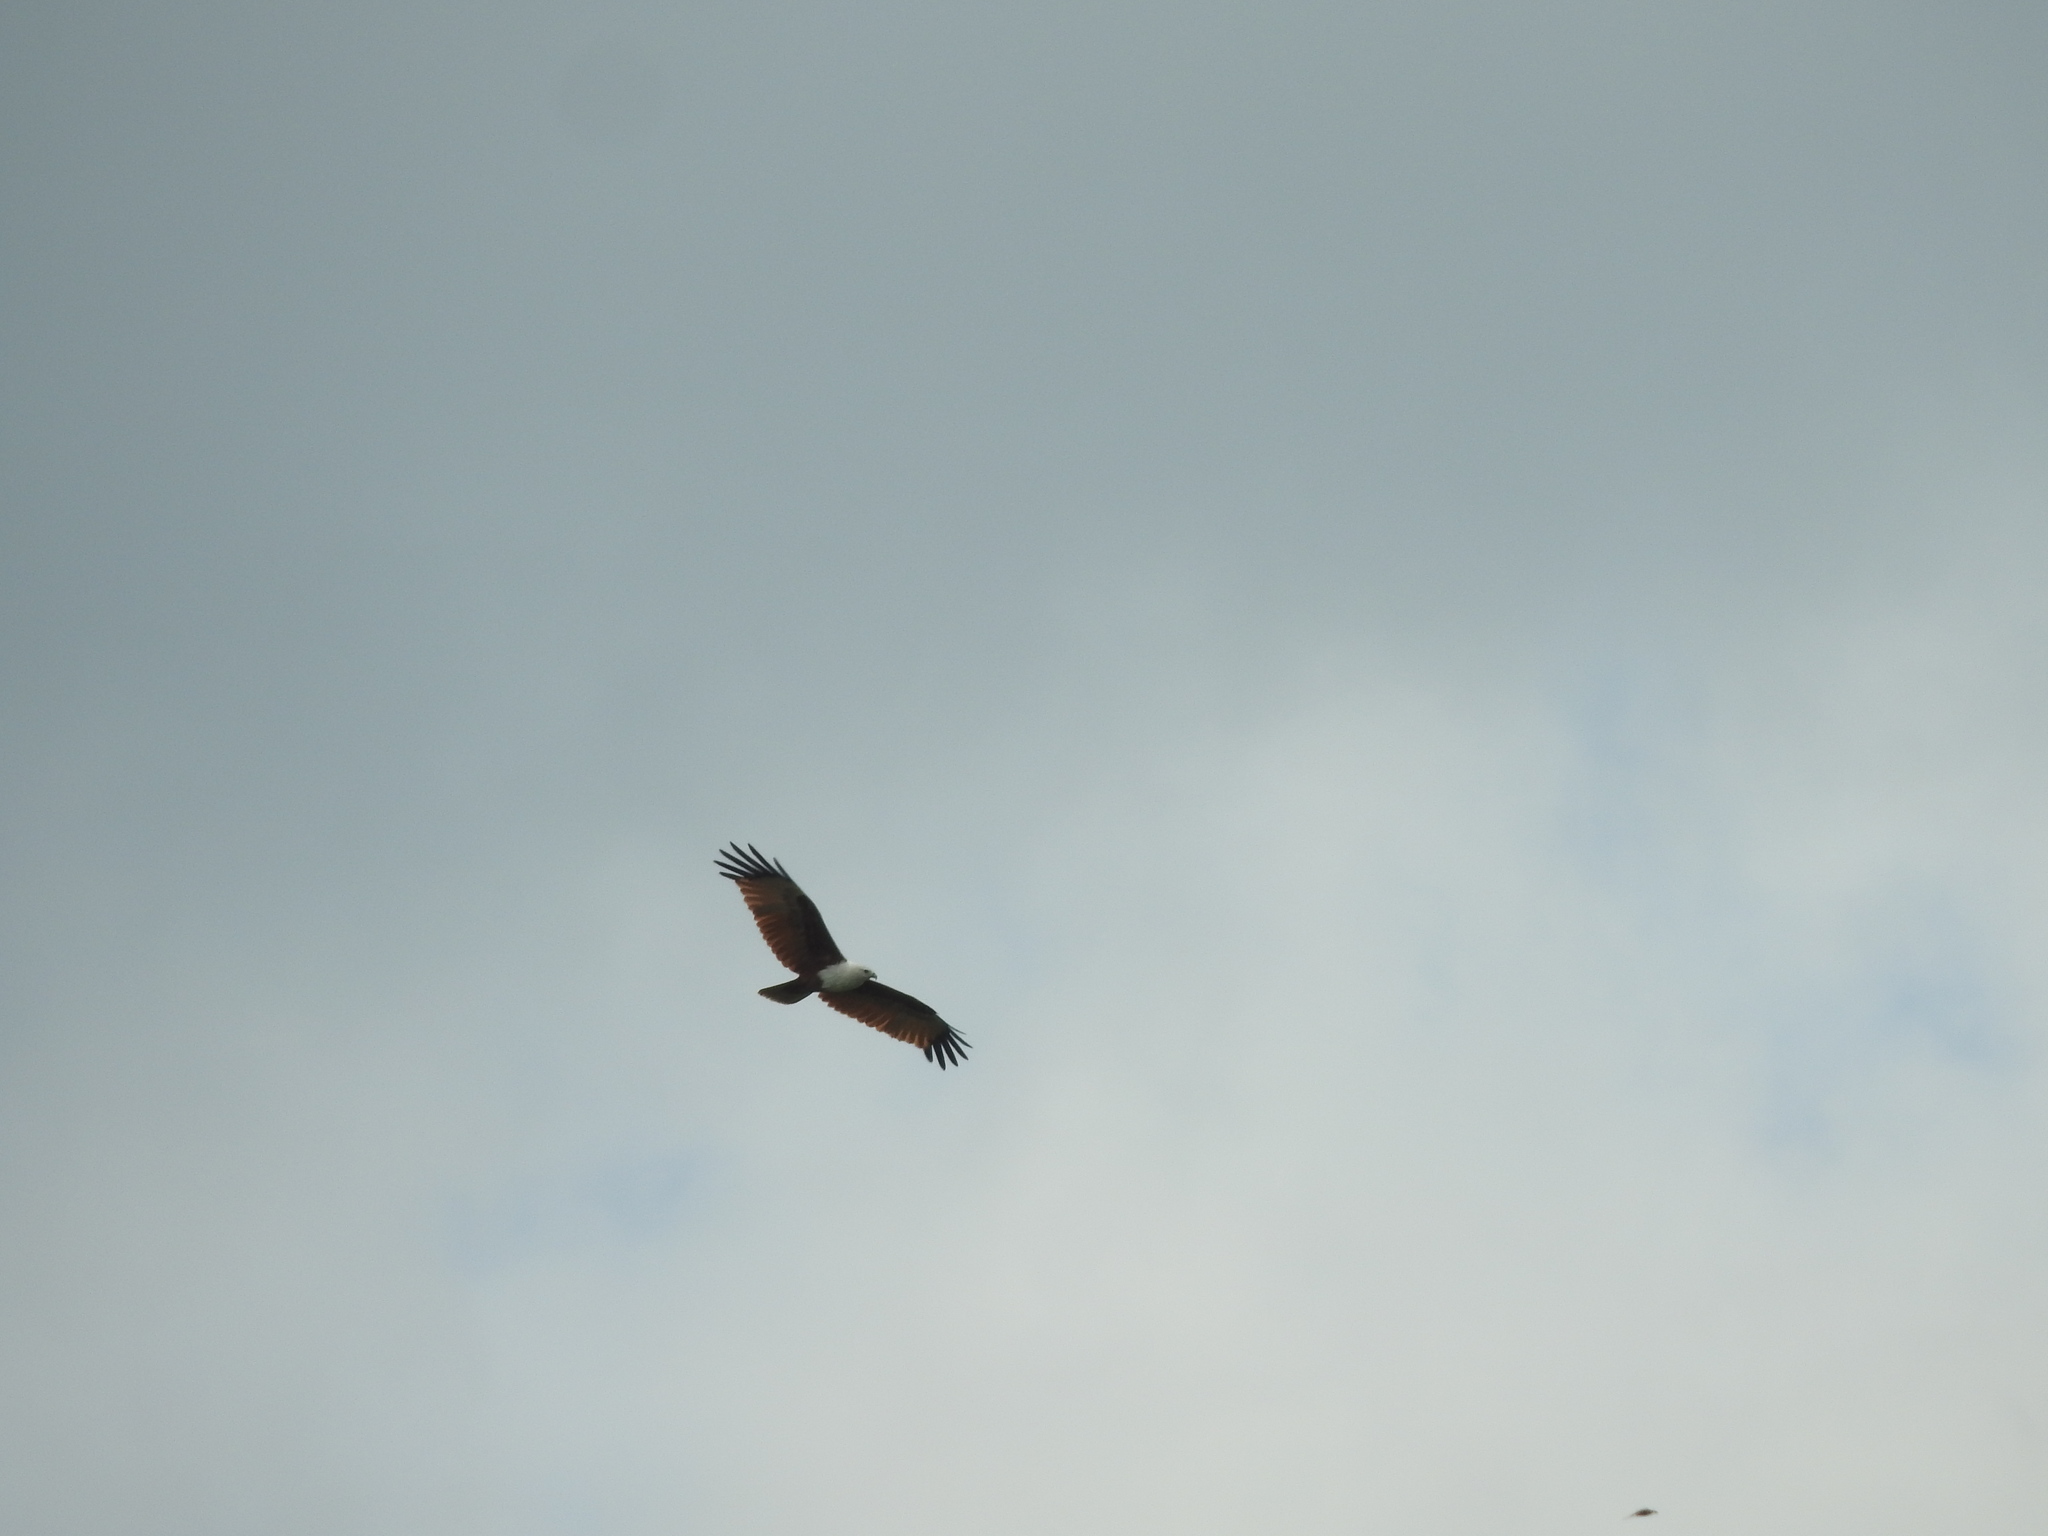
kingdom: Animalia
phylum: Chordata
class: Aves
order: Accipitriformes
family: Accipitridae
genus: Haliastur
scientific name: Haliastur indus
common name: Brahminy kite
